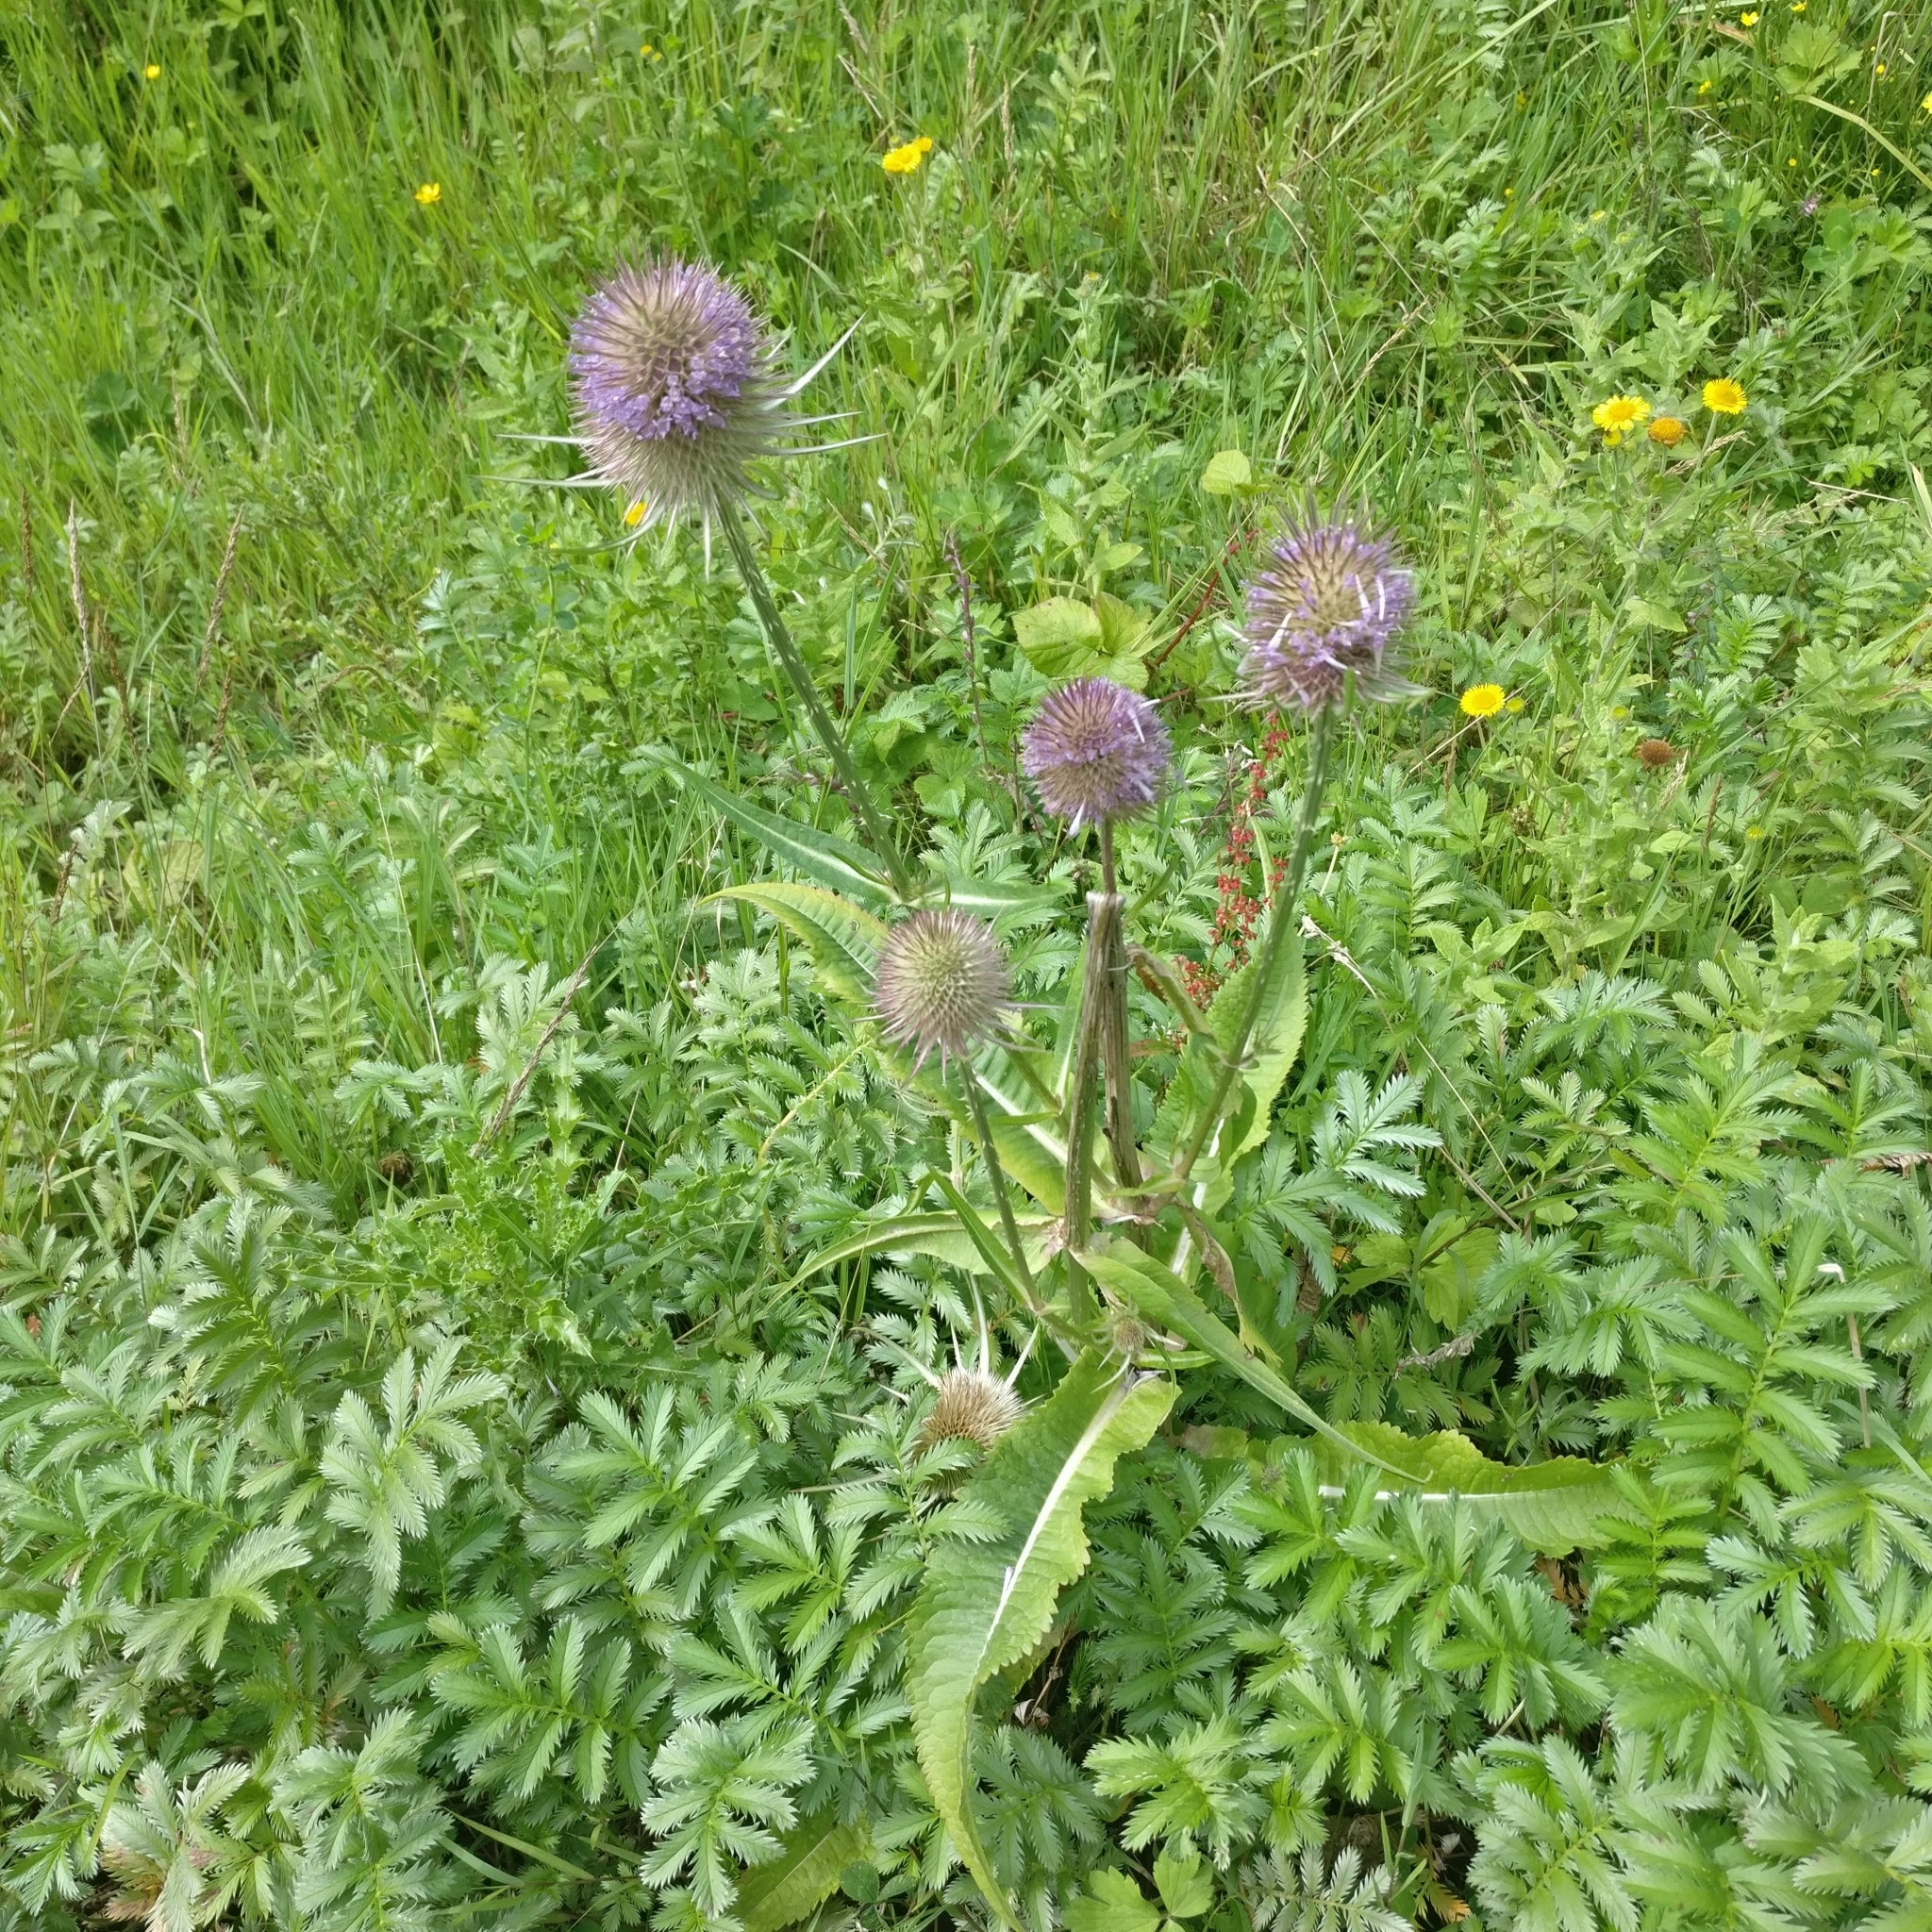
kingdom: Plantae
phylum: Tracheophyta
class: Magnoliopsida
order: Dipsacales
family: Caprifoliaceae
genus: Dipsacus
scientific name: Dipsacus fullonum
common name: Teasel
